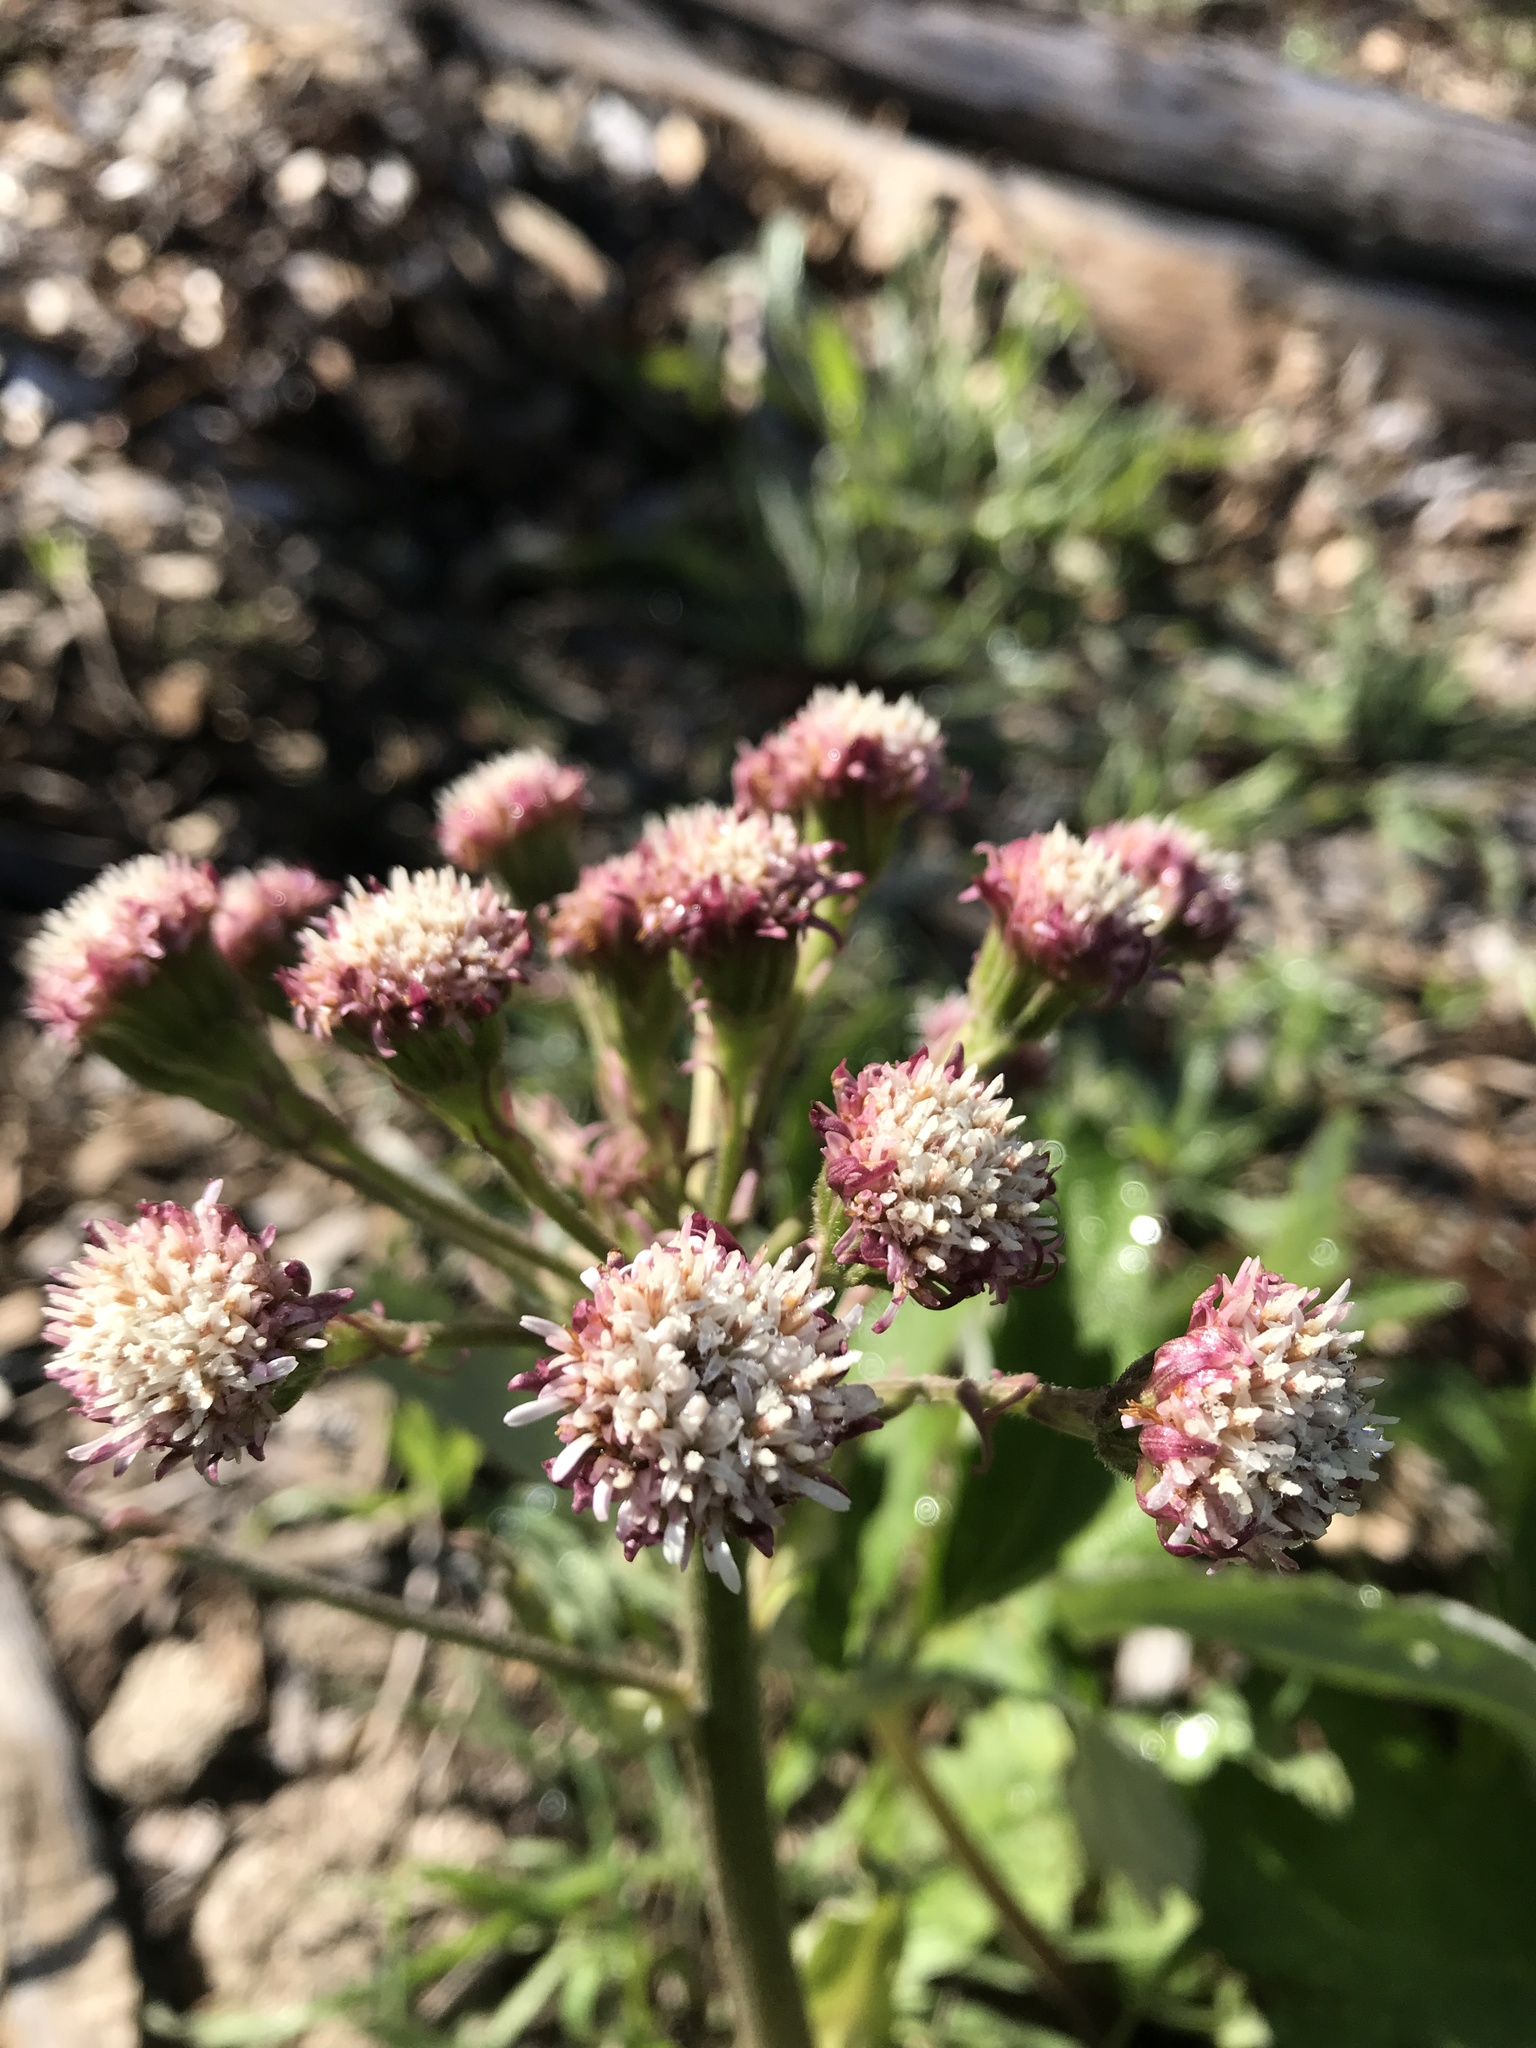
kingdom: Plantae
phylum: Tracheophyta
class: Magnoliopsida
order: Asterales
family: Asteraceae
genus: Petasites
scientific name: Petasites frigidus
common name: Arctic butterbur
